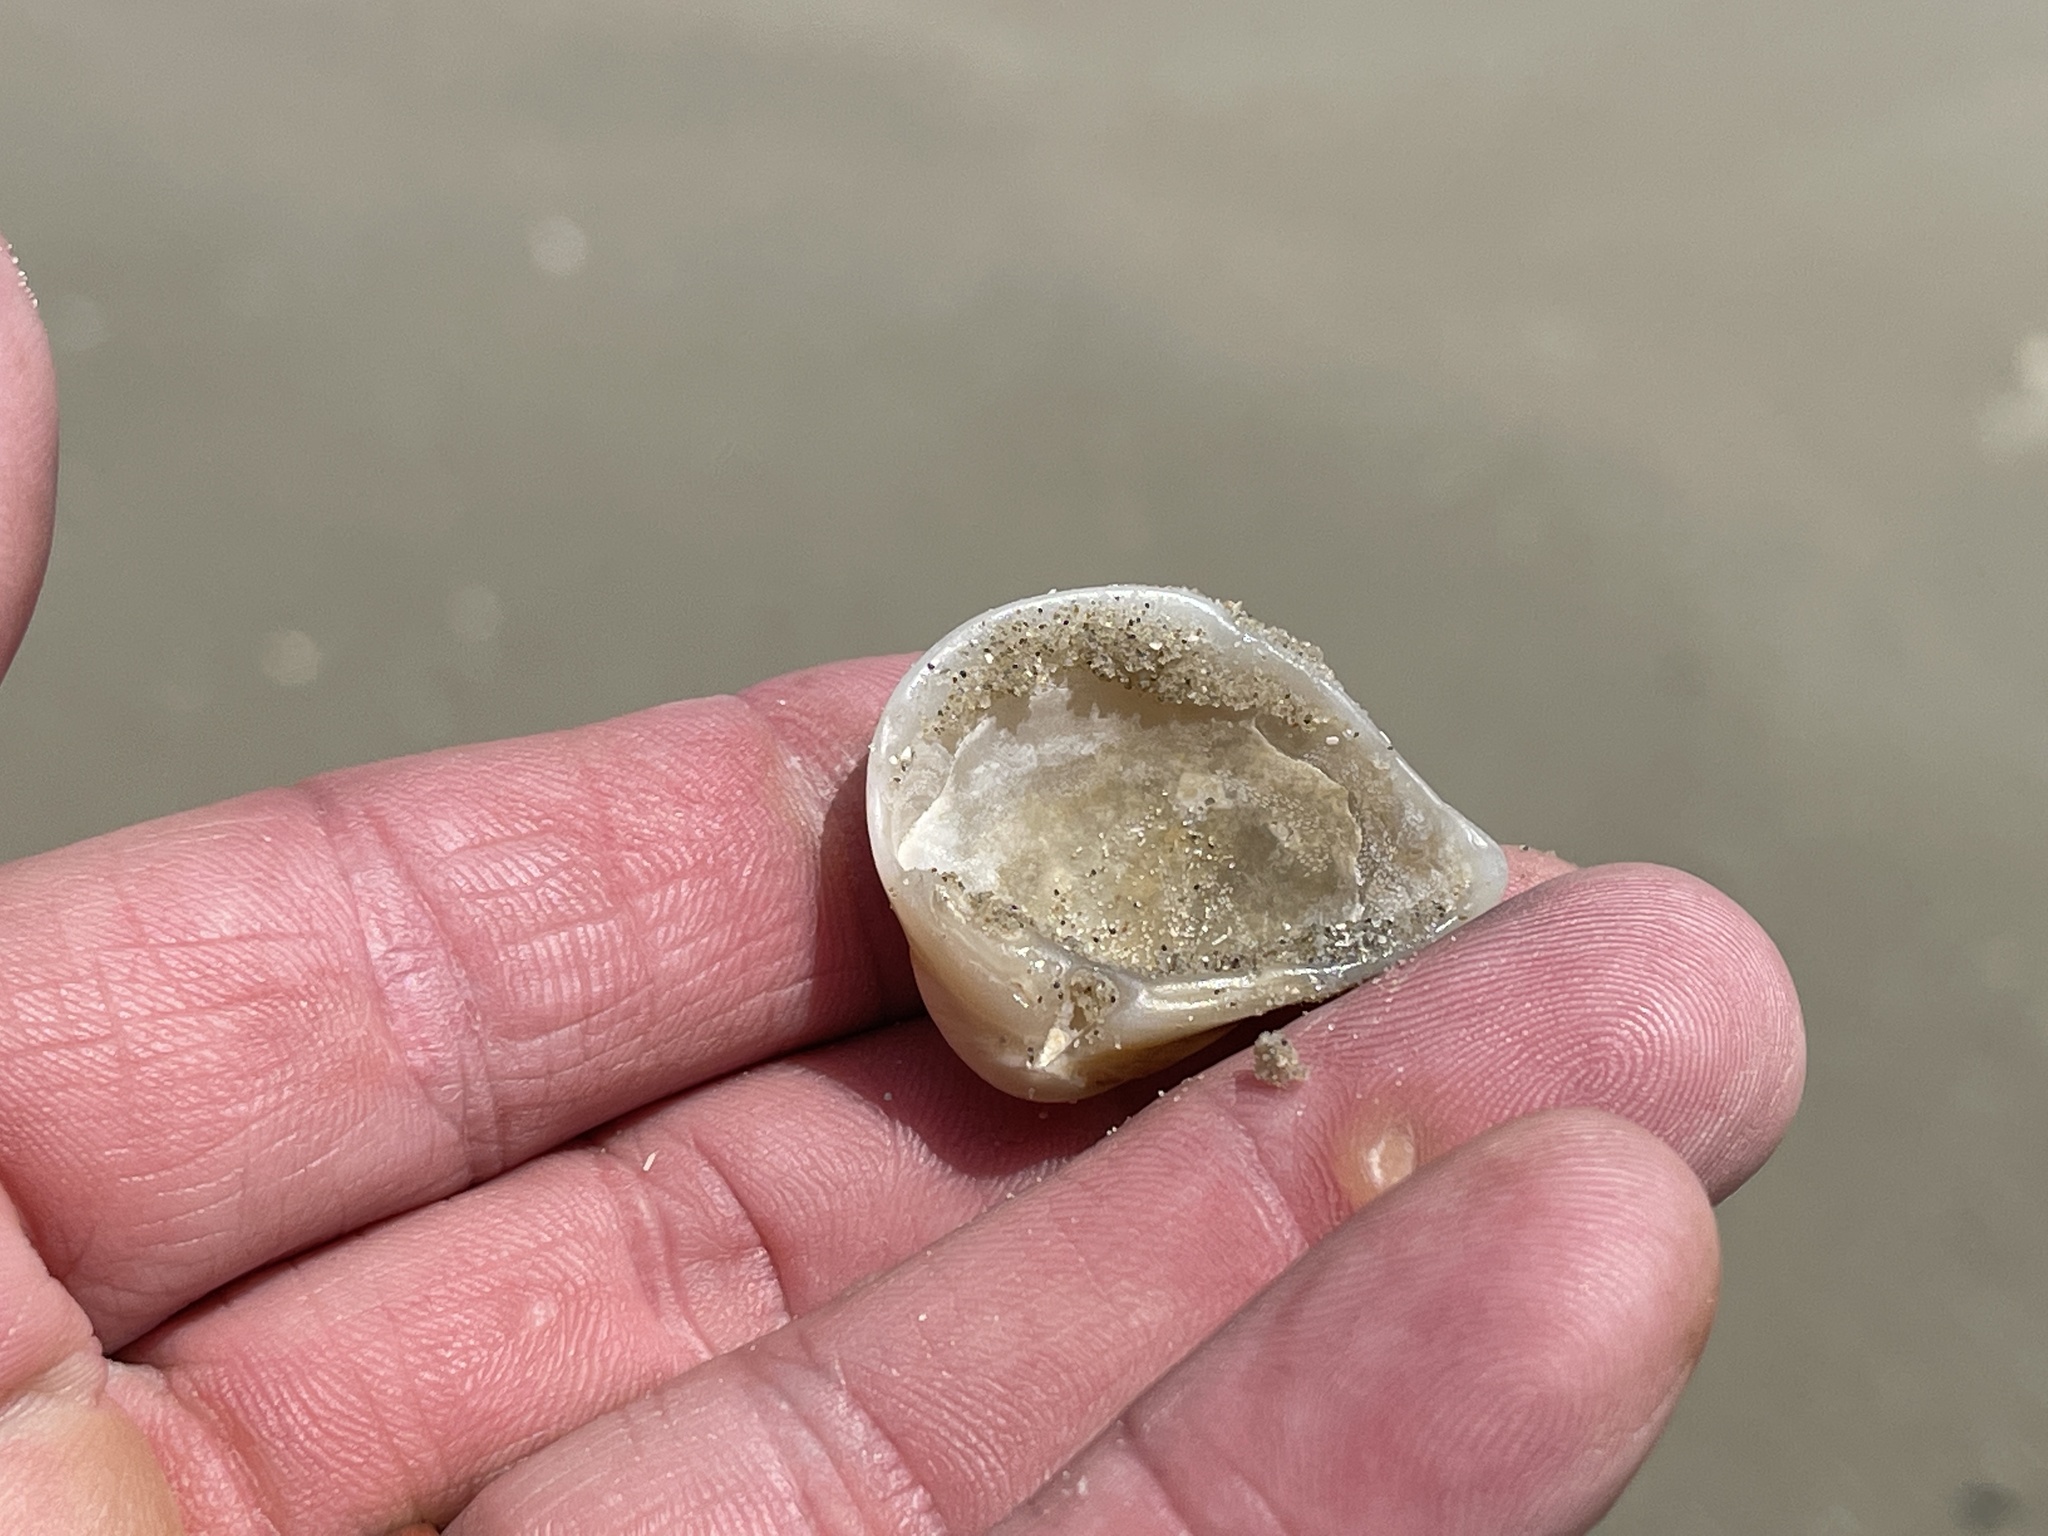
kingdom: Animalia
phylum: Mollusca
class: Bivalvia
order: Venerida
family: Mactridae
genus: Rangia
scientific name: Rangia flexuosa
